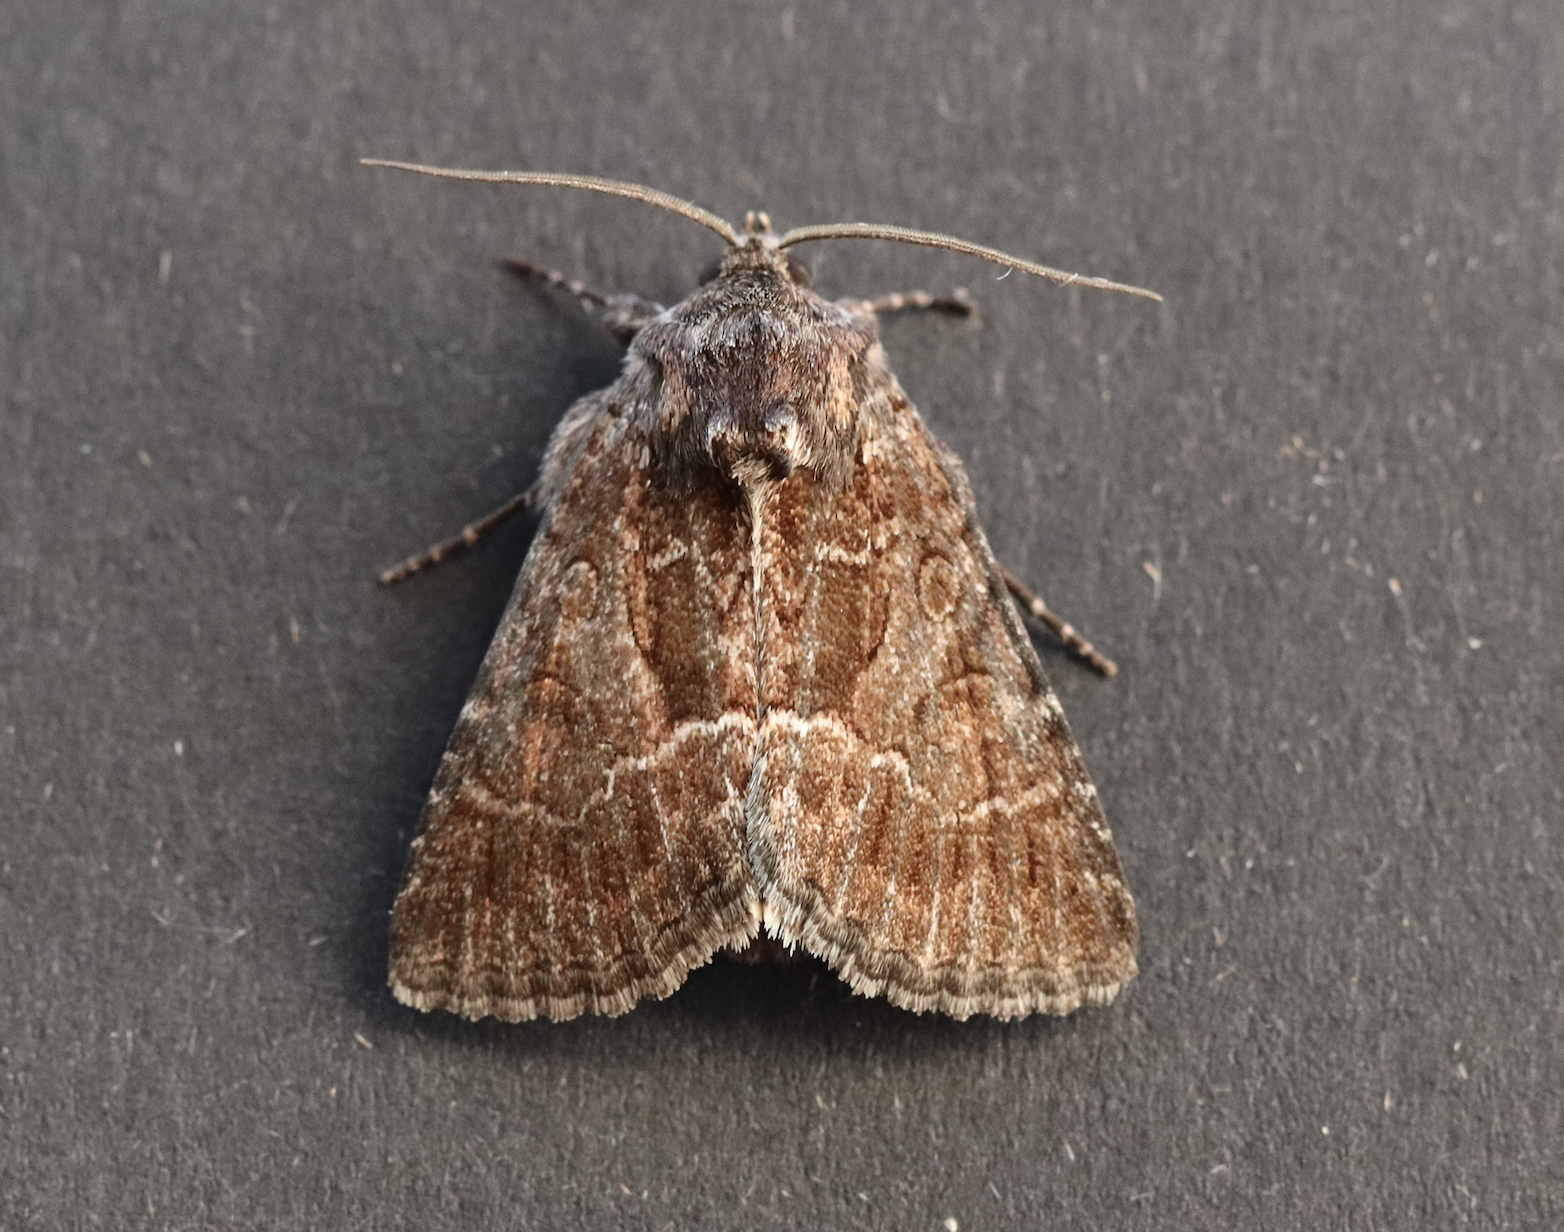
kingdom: Animalia
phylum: Arthropoda
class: Insecta
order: Lepidoptera
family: Noctuidae
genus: Thalpophila
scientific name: Thalpophila matura
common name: Straw underwing
